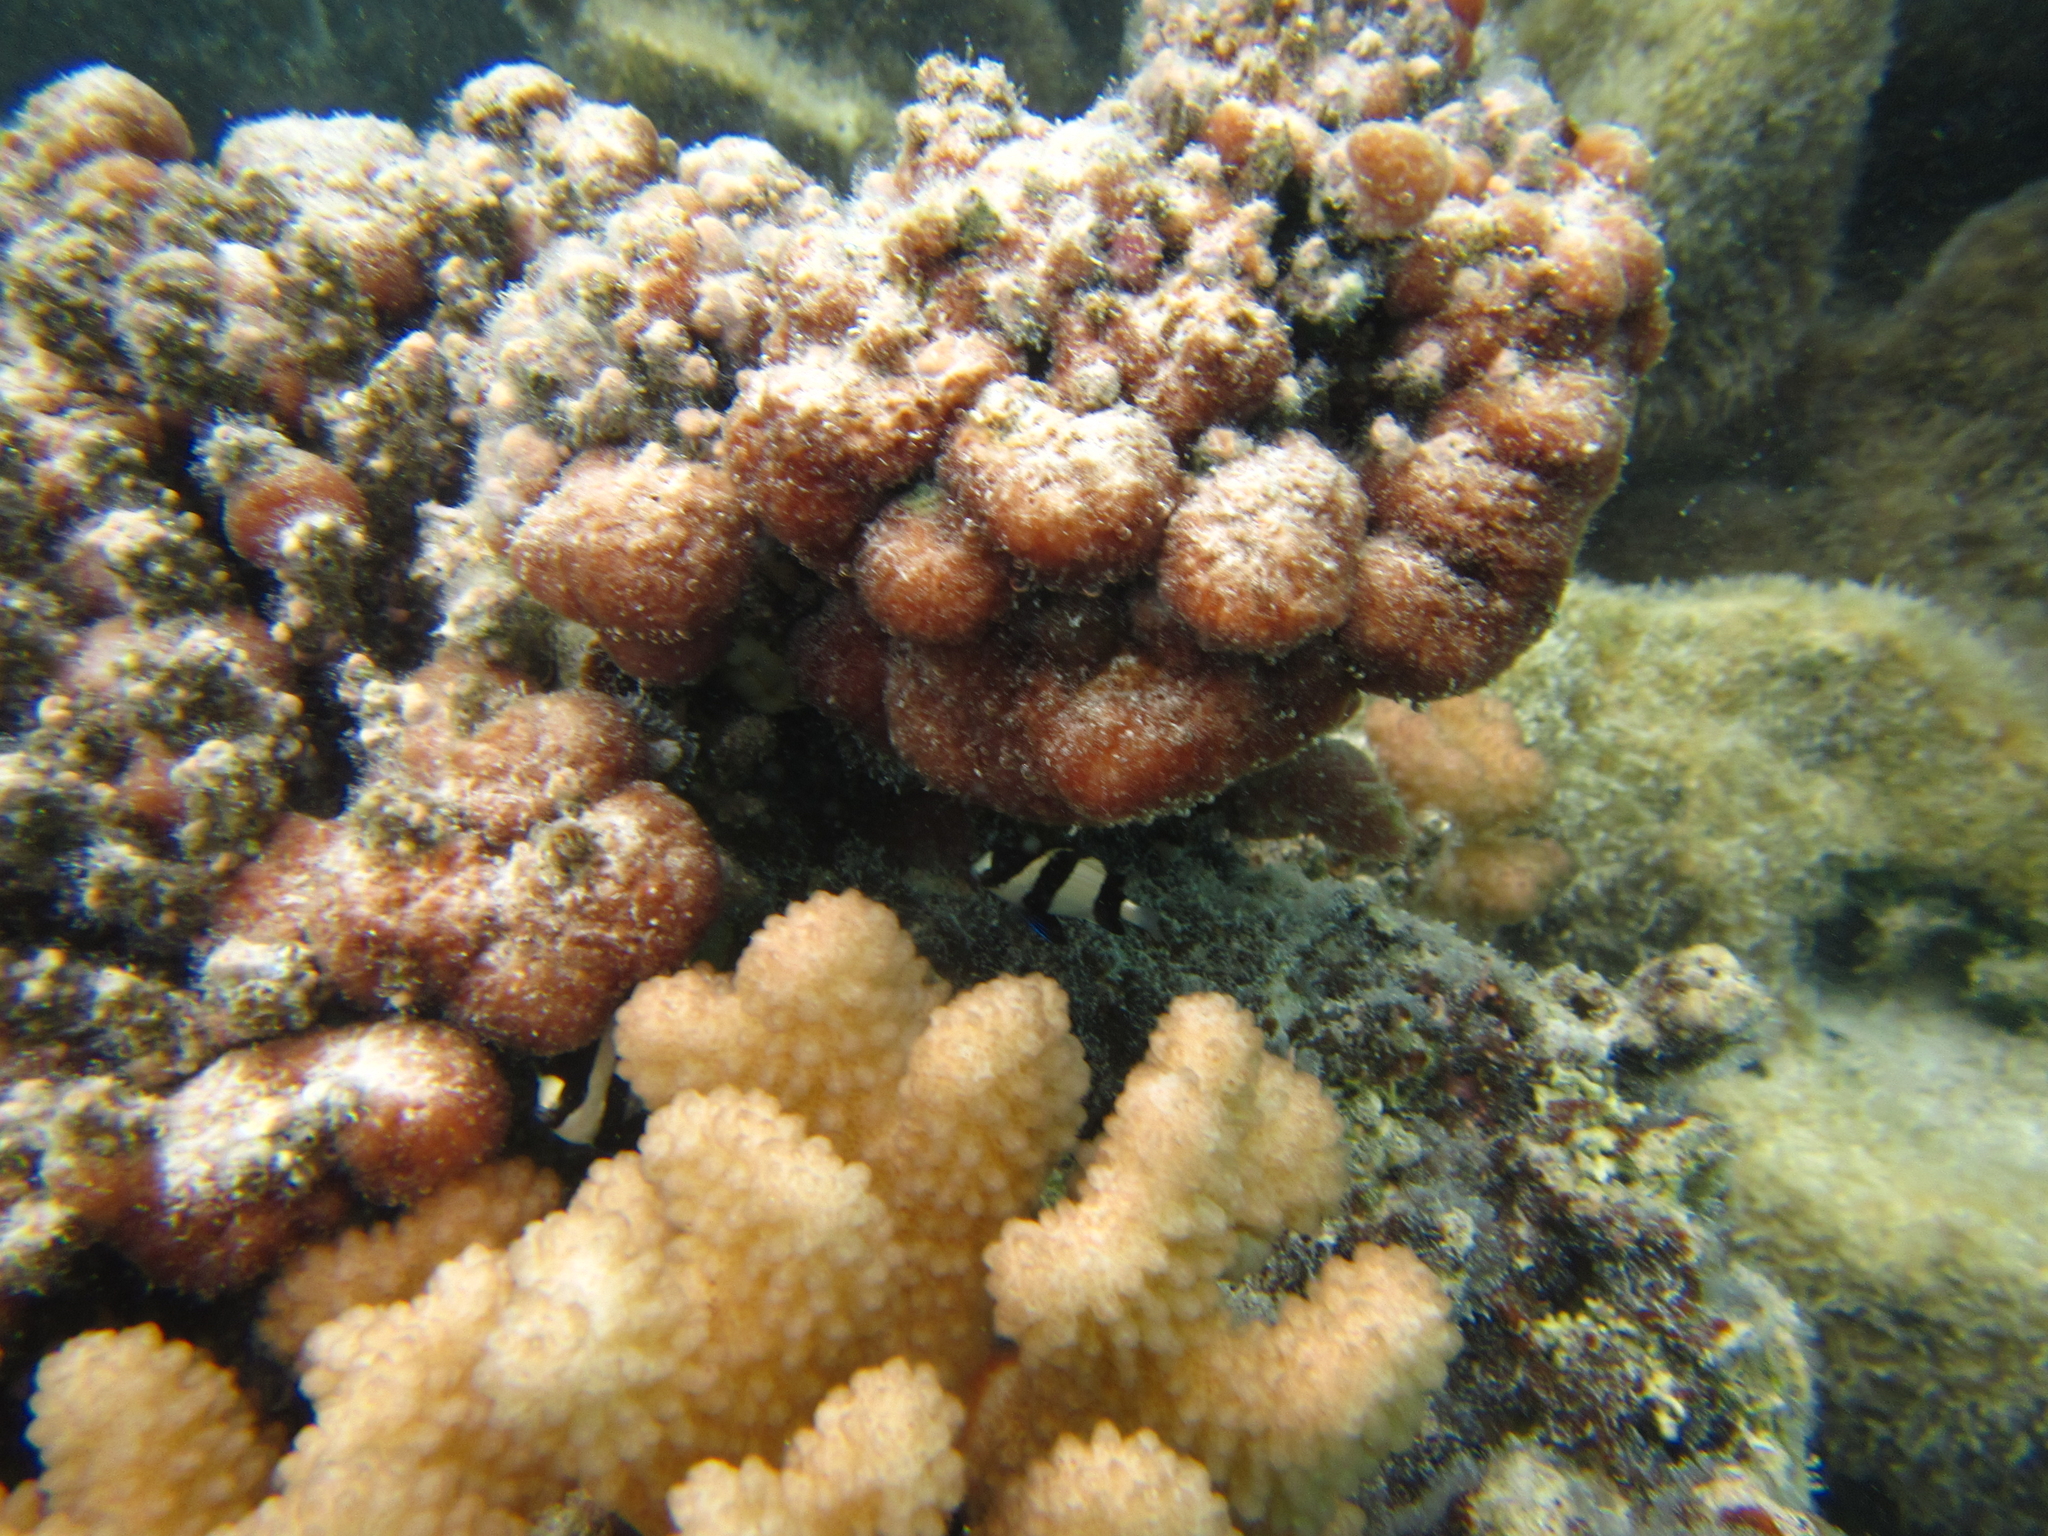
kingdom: Animalia
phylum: Chordata
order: Perciformes
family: Pomacentridae
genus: Dascyllus
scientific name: Dascyllus aruanus
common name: Humbug dascyllus
